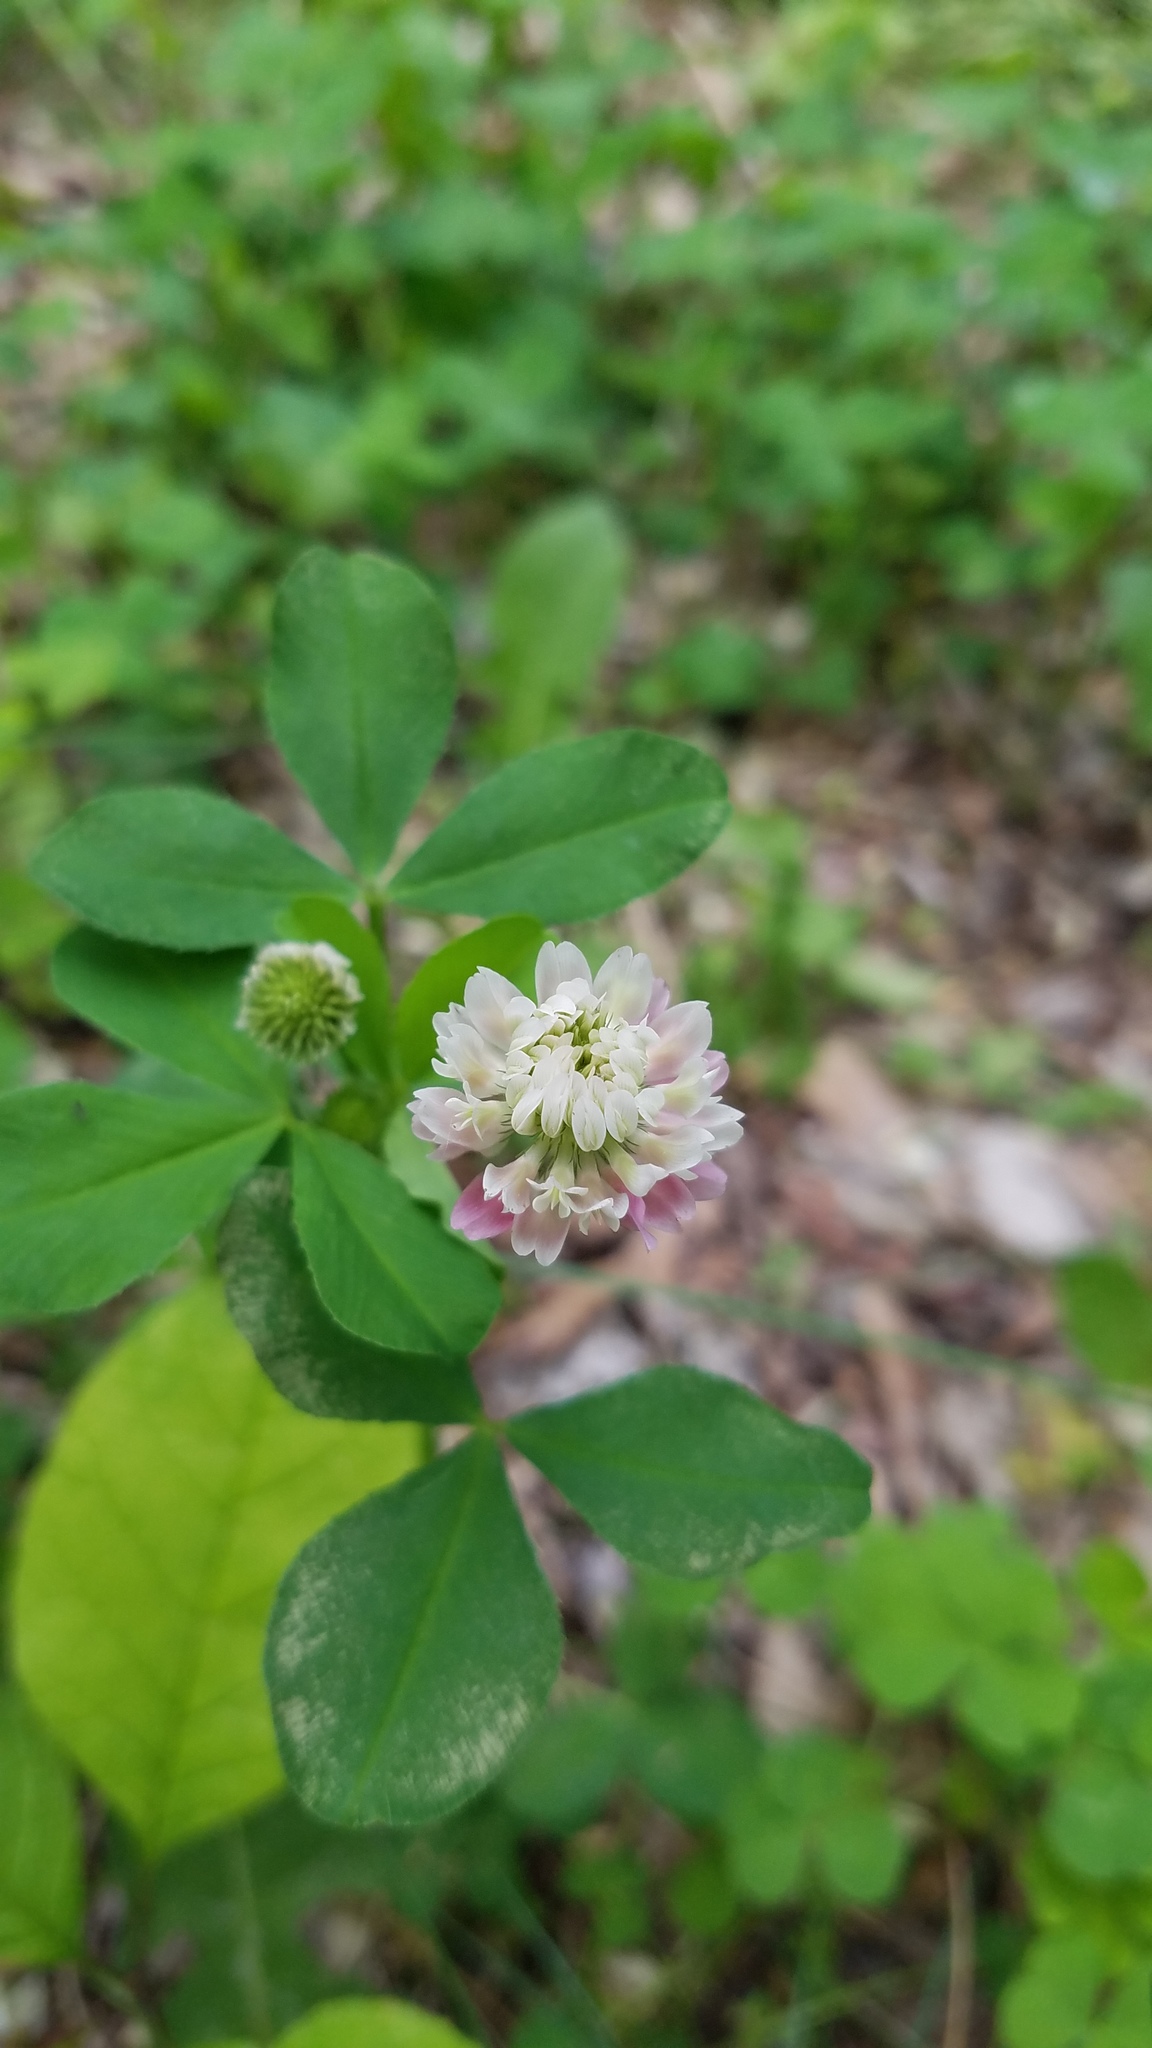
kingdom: Plantae
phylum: Tracheophyta
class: Magnoliopsida
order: Fabales
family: Fabaceae
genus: Trifolium
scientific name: Trifolium hybridum
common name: Alsike clover
